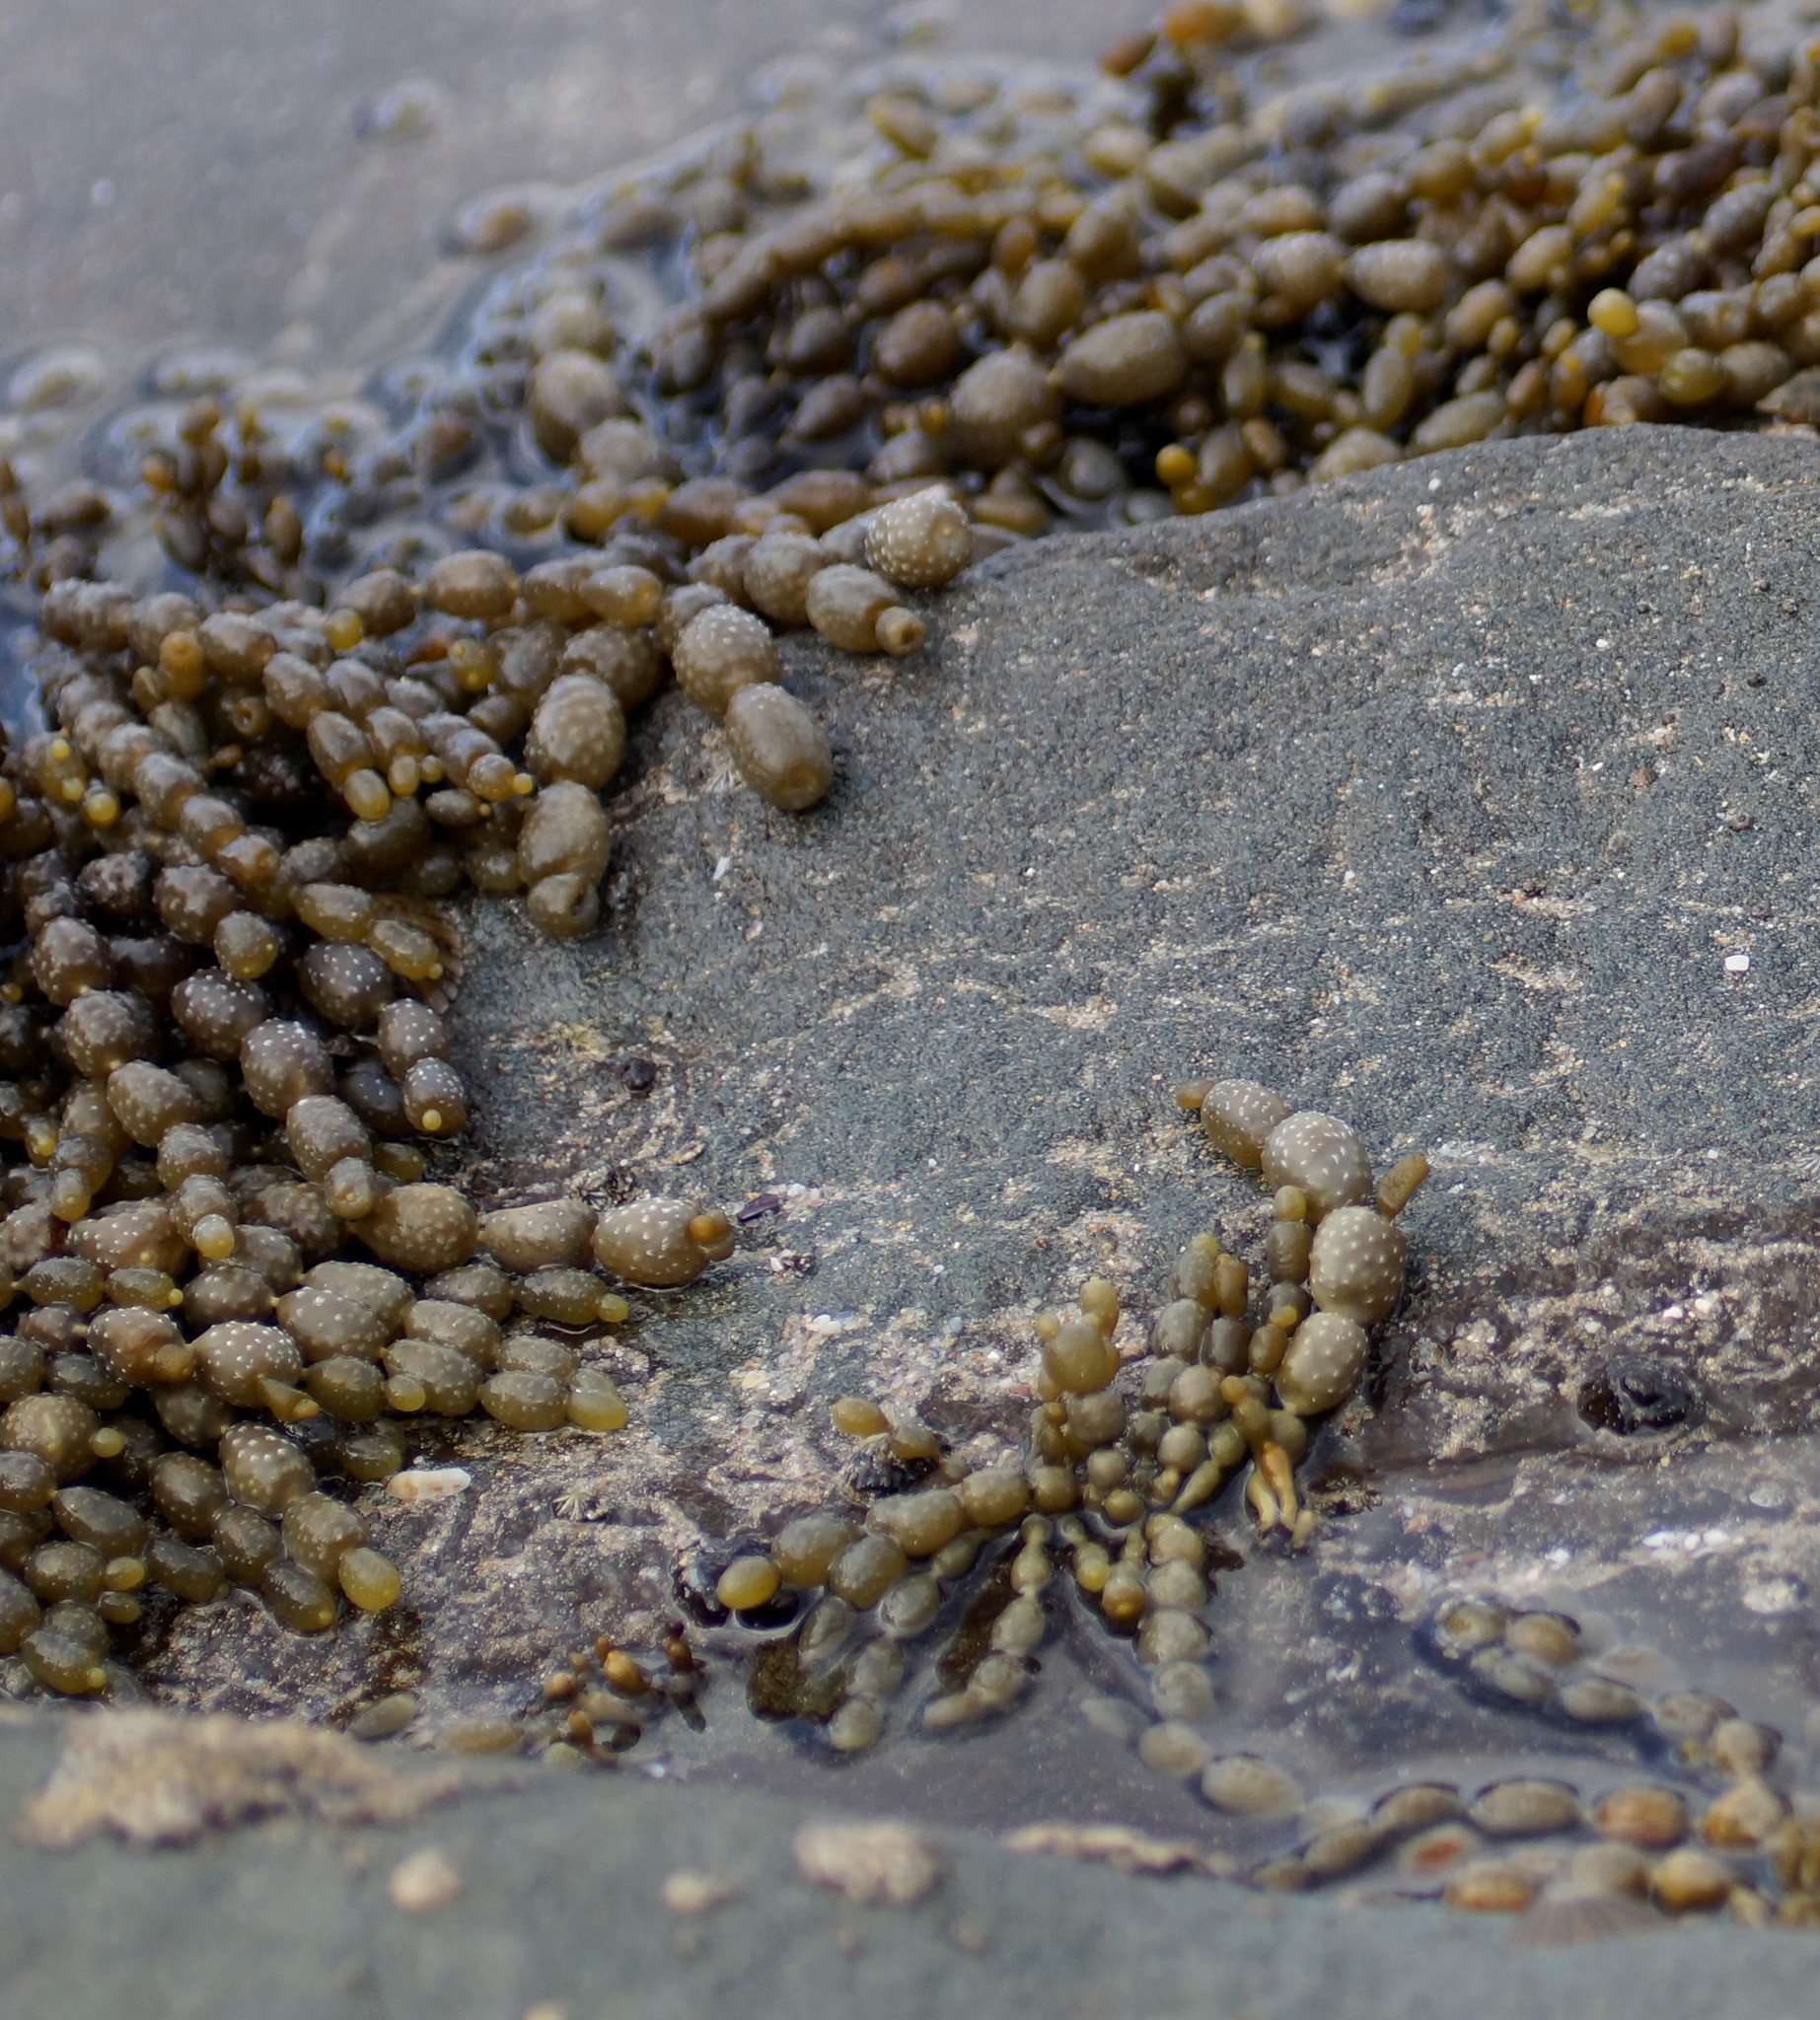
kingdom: Chromista
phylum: Ochrophyta
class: Phaeophyceae
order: Fucales
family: Hormosiraceae
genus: Hormosira
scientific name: Hormosira banksii
